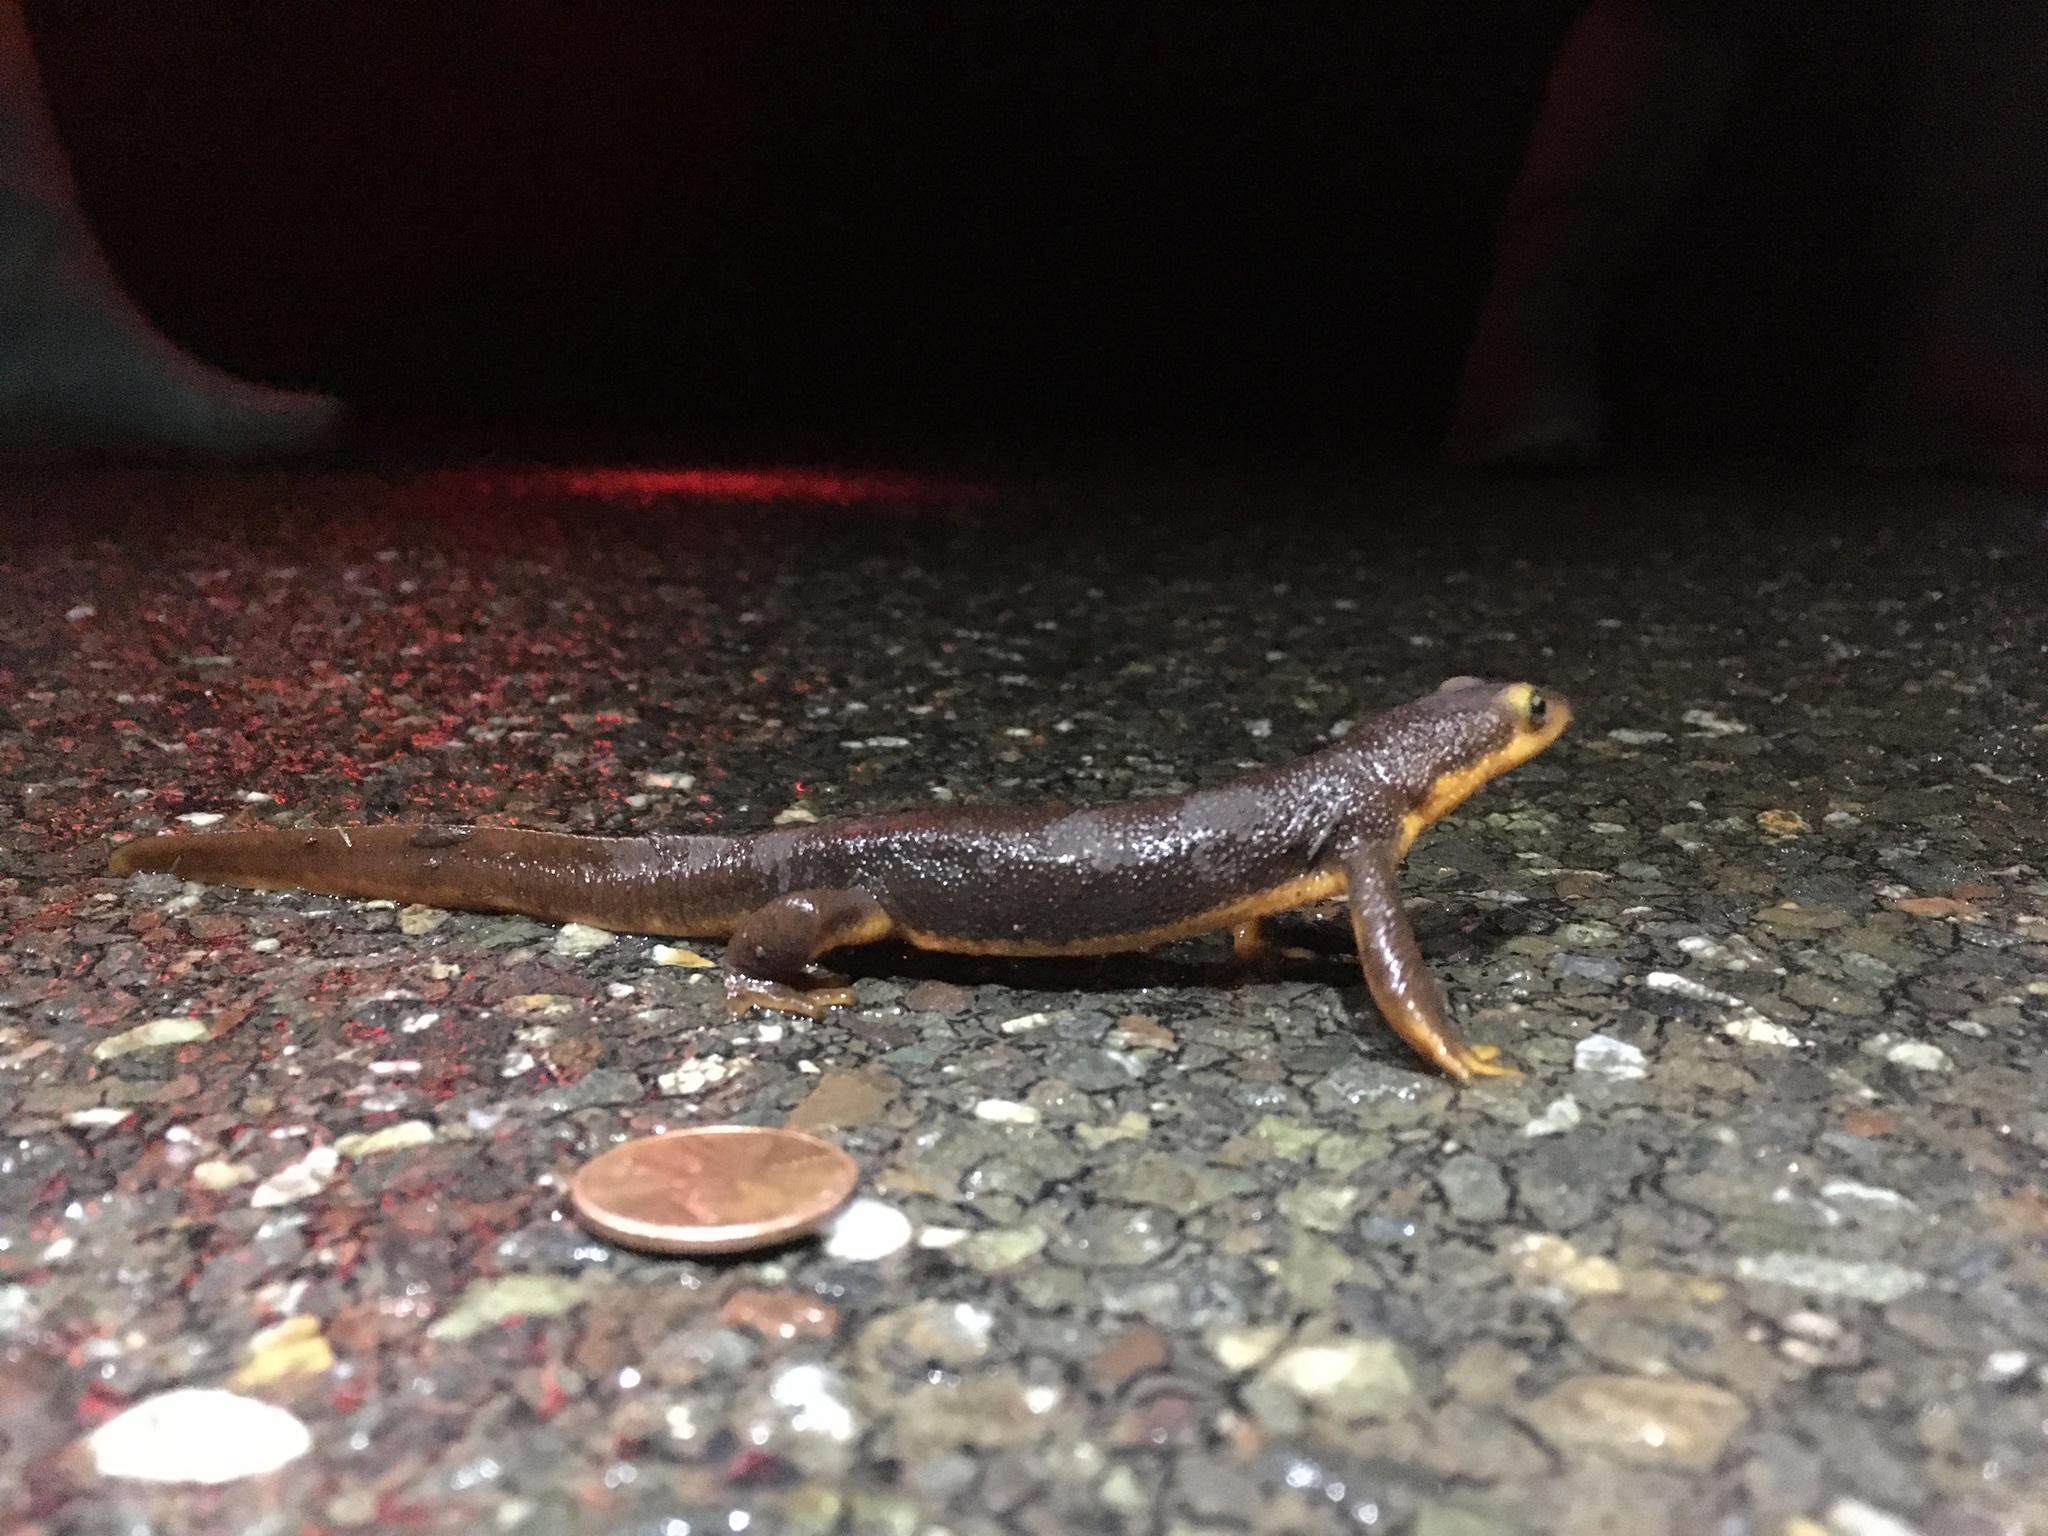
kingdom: Animalia
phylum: Chordata
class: Amphibia
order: Caudata
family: Salamandridae
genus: Taricha
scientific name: Taricha torosa
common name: California newt
